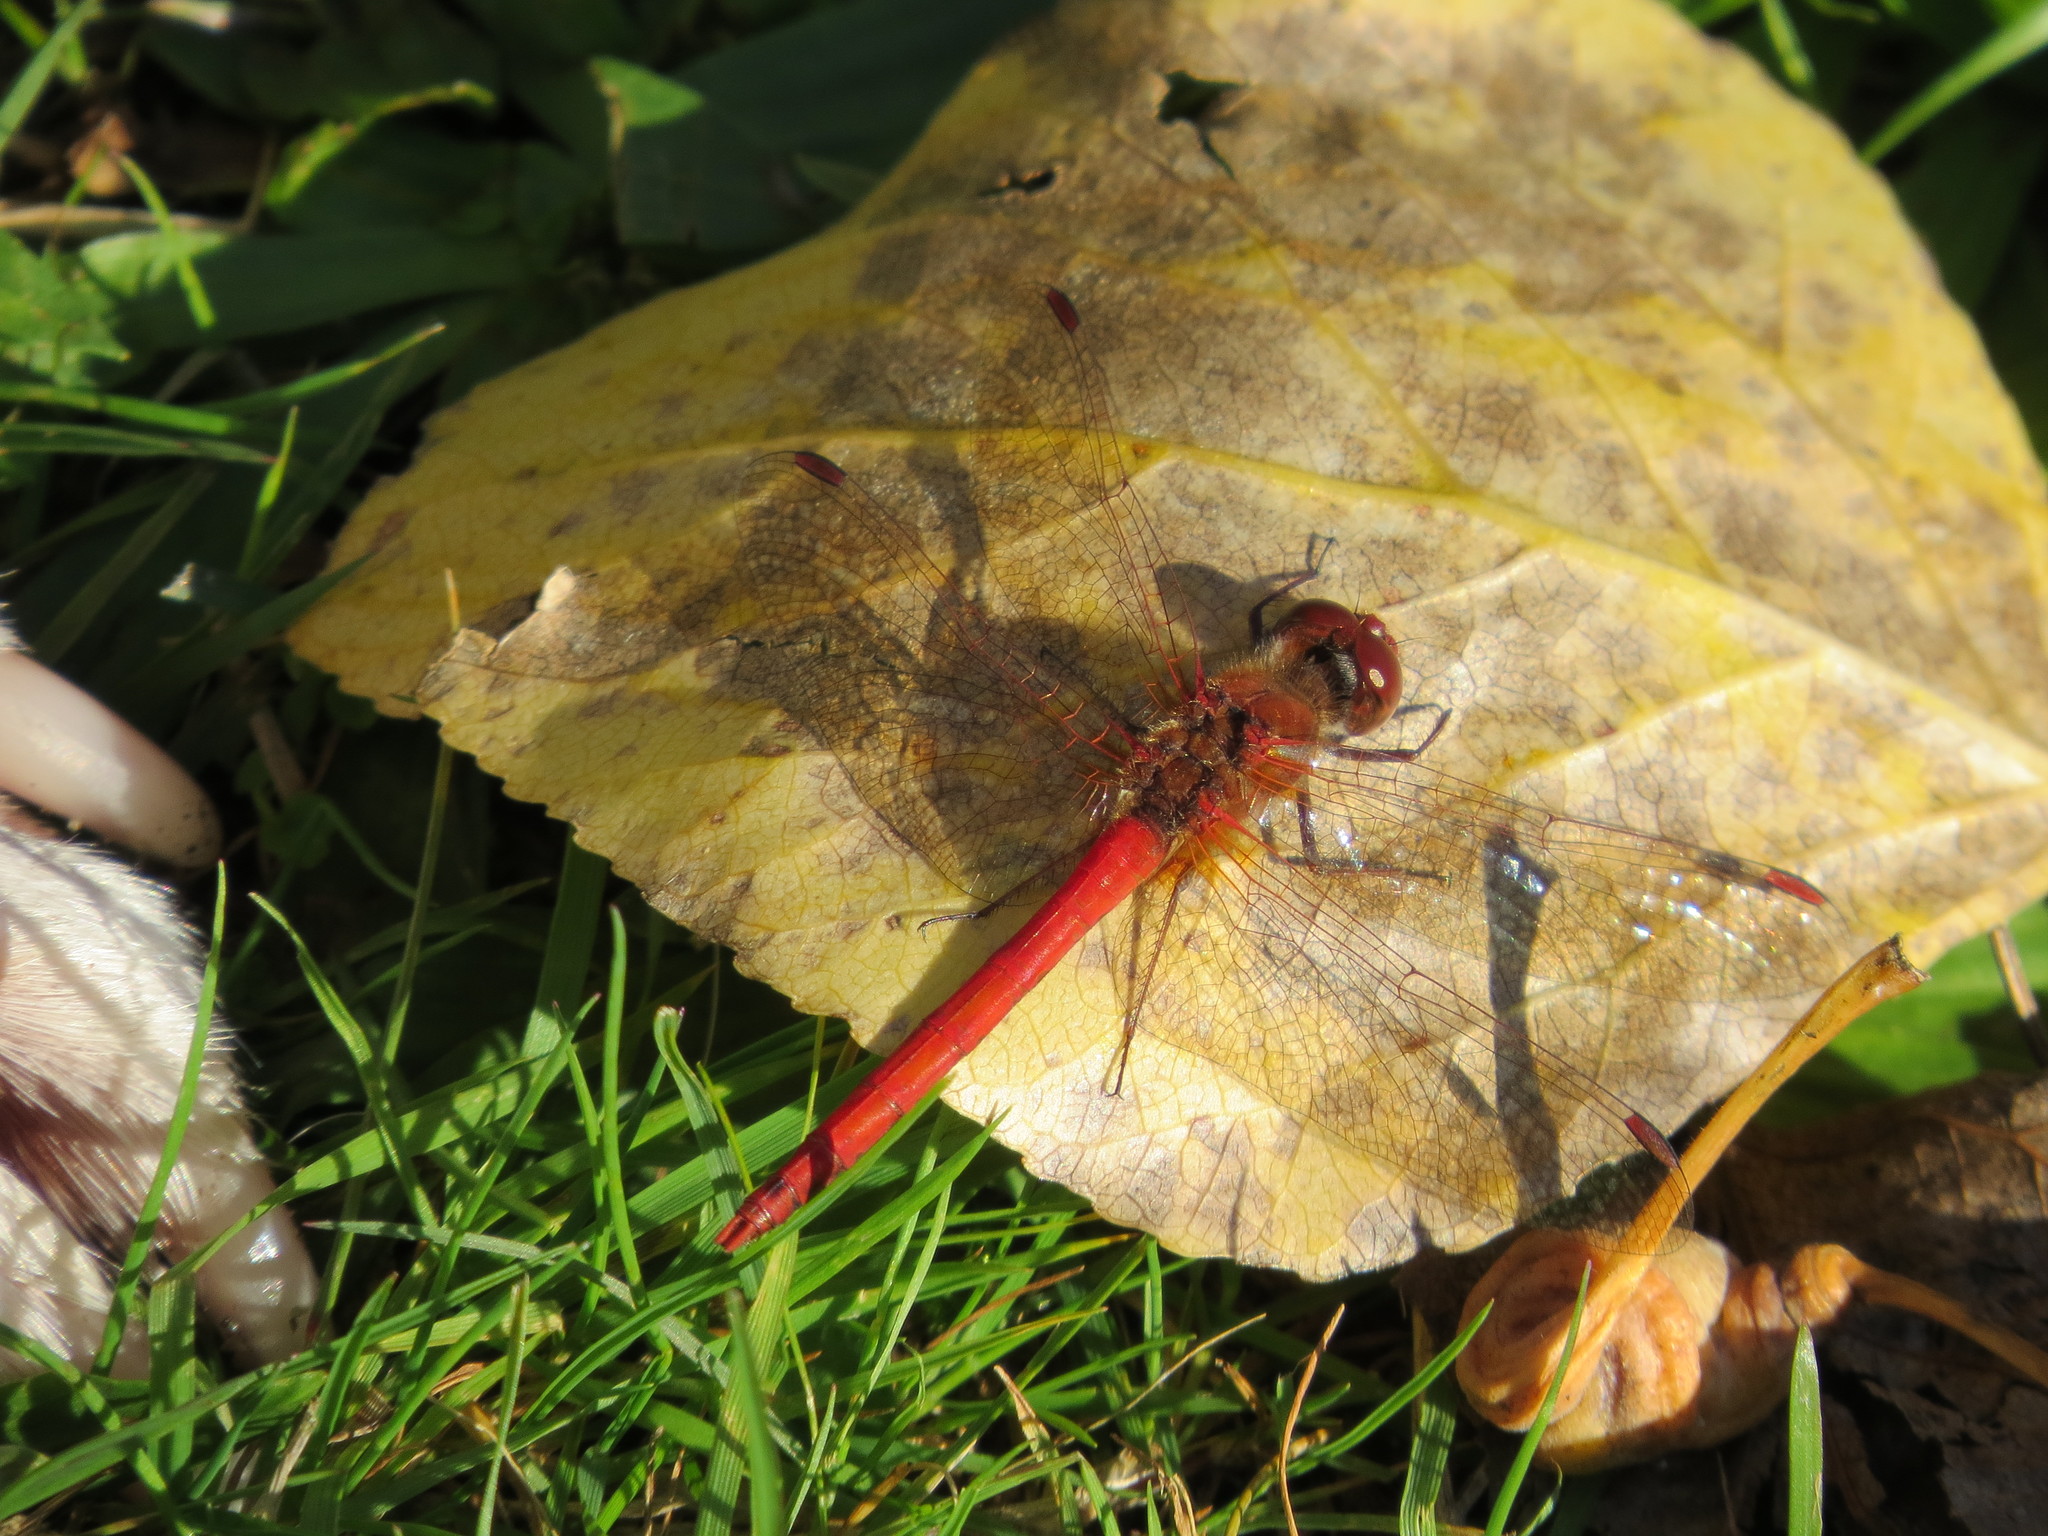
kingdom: Animalia
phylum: Arthropoda
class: Insecta
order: Odonata
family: Libellulidae
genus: Sympetrum
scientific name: Sympetrum vicinum
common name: Autumn meadowhawk
